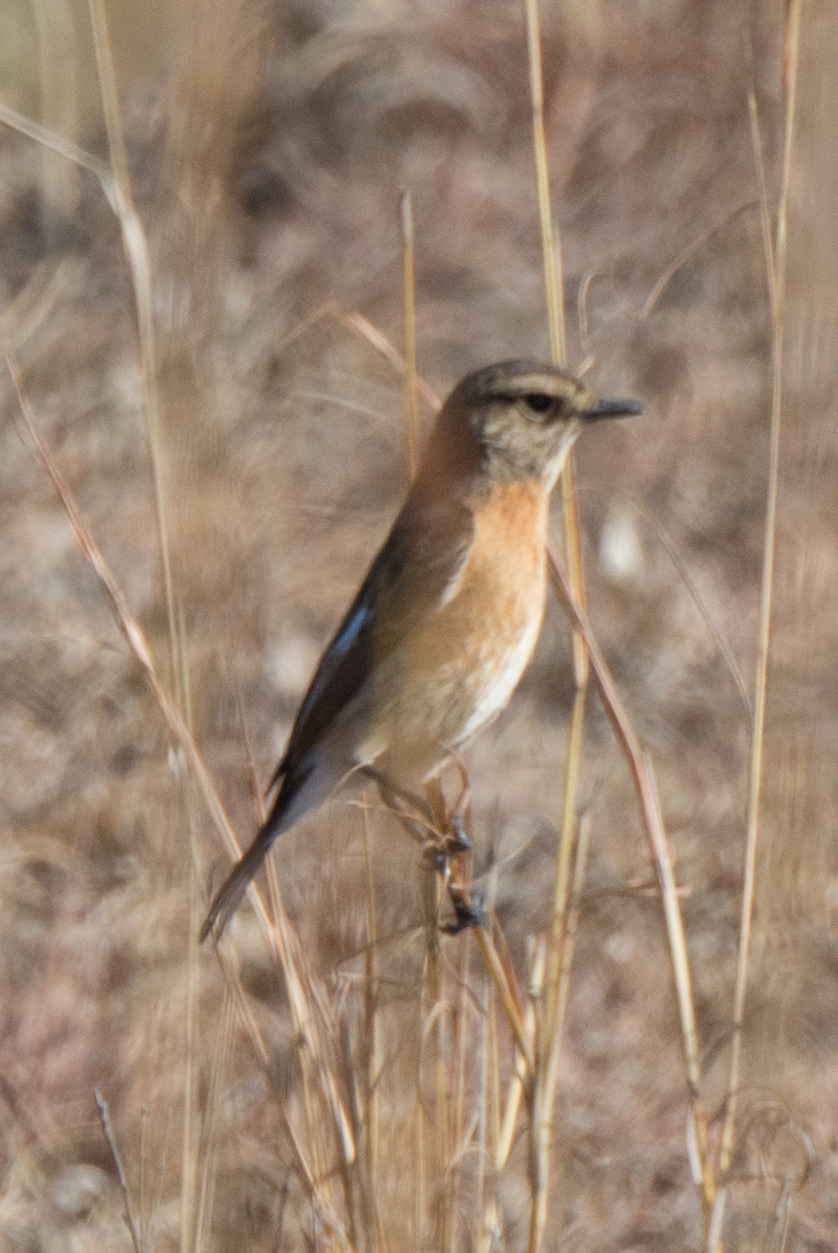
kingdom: Animalia
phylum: Chordata
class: Aves
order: Passeriformes
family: Muscicapidae
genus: Saxicola
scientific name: Saxicola torquatus
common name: African stonechat
